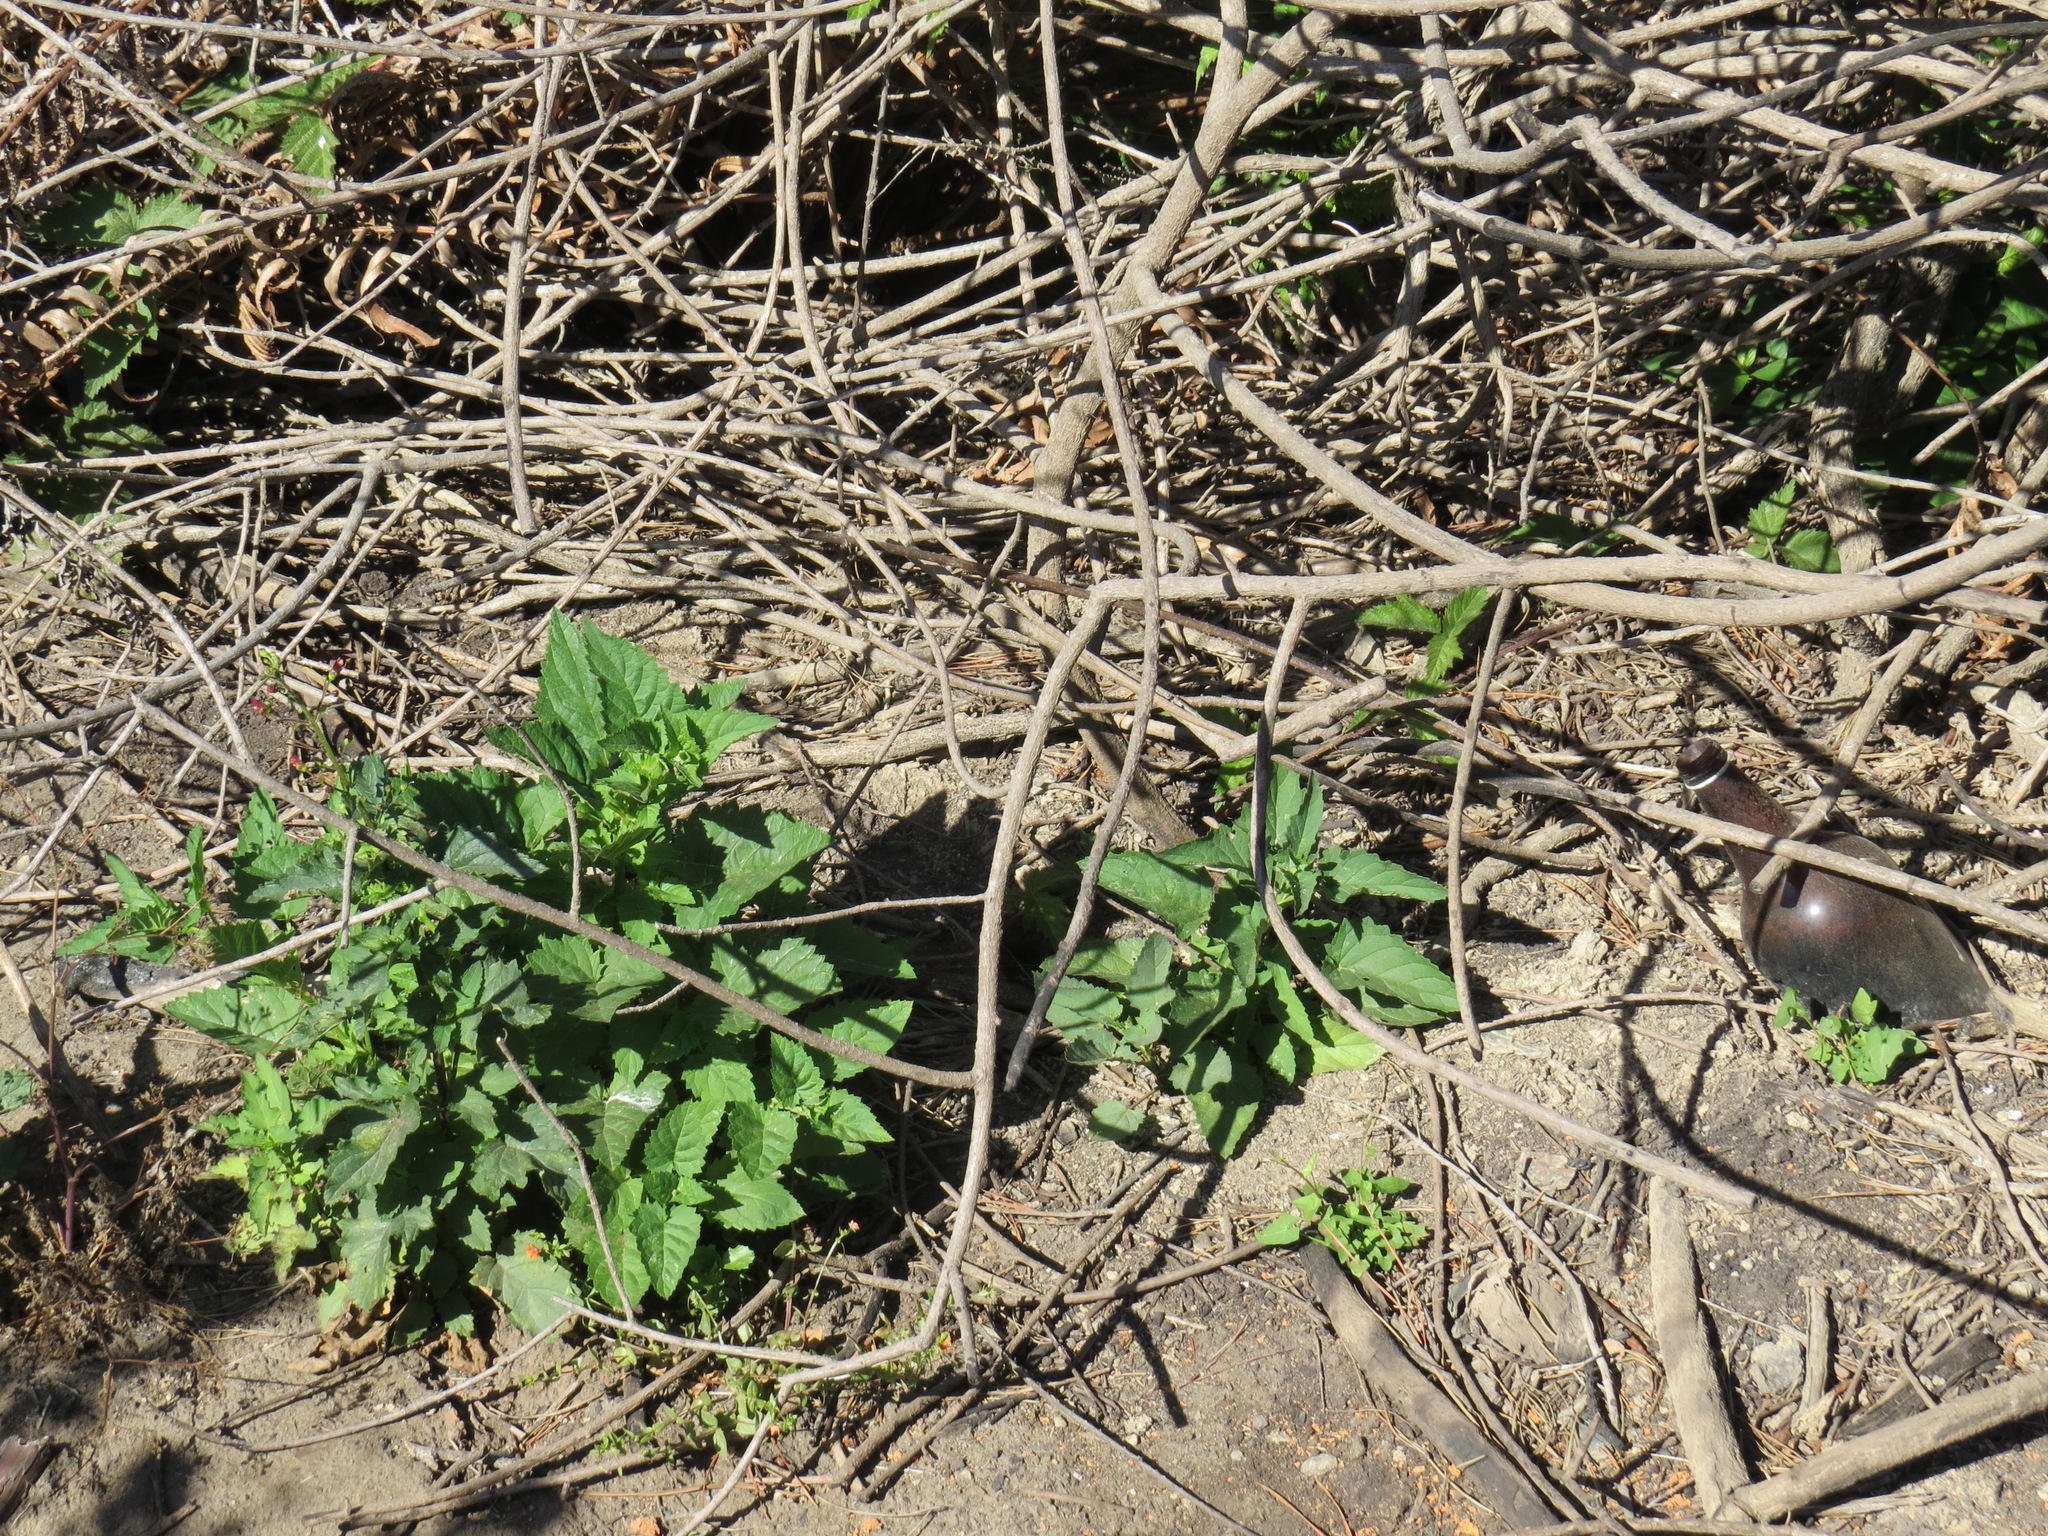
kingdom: Plantae
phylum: Tracheophyta
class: Magnoliopsida
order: Lamiales
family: Scrophulariaceae
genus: Scrophularia
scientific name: Scrophularia californica
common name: California figwort
